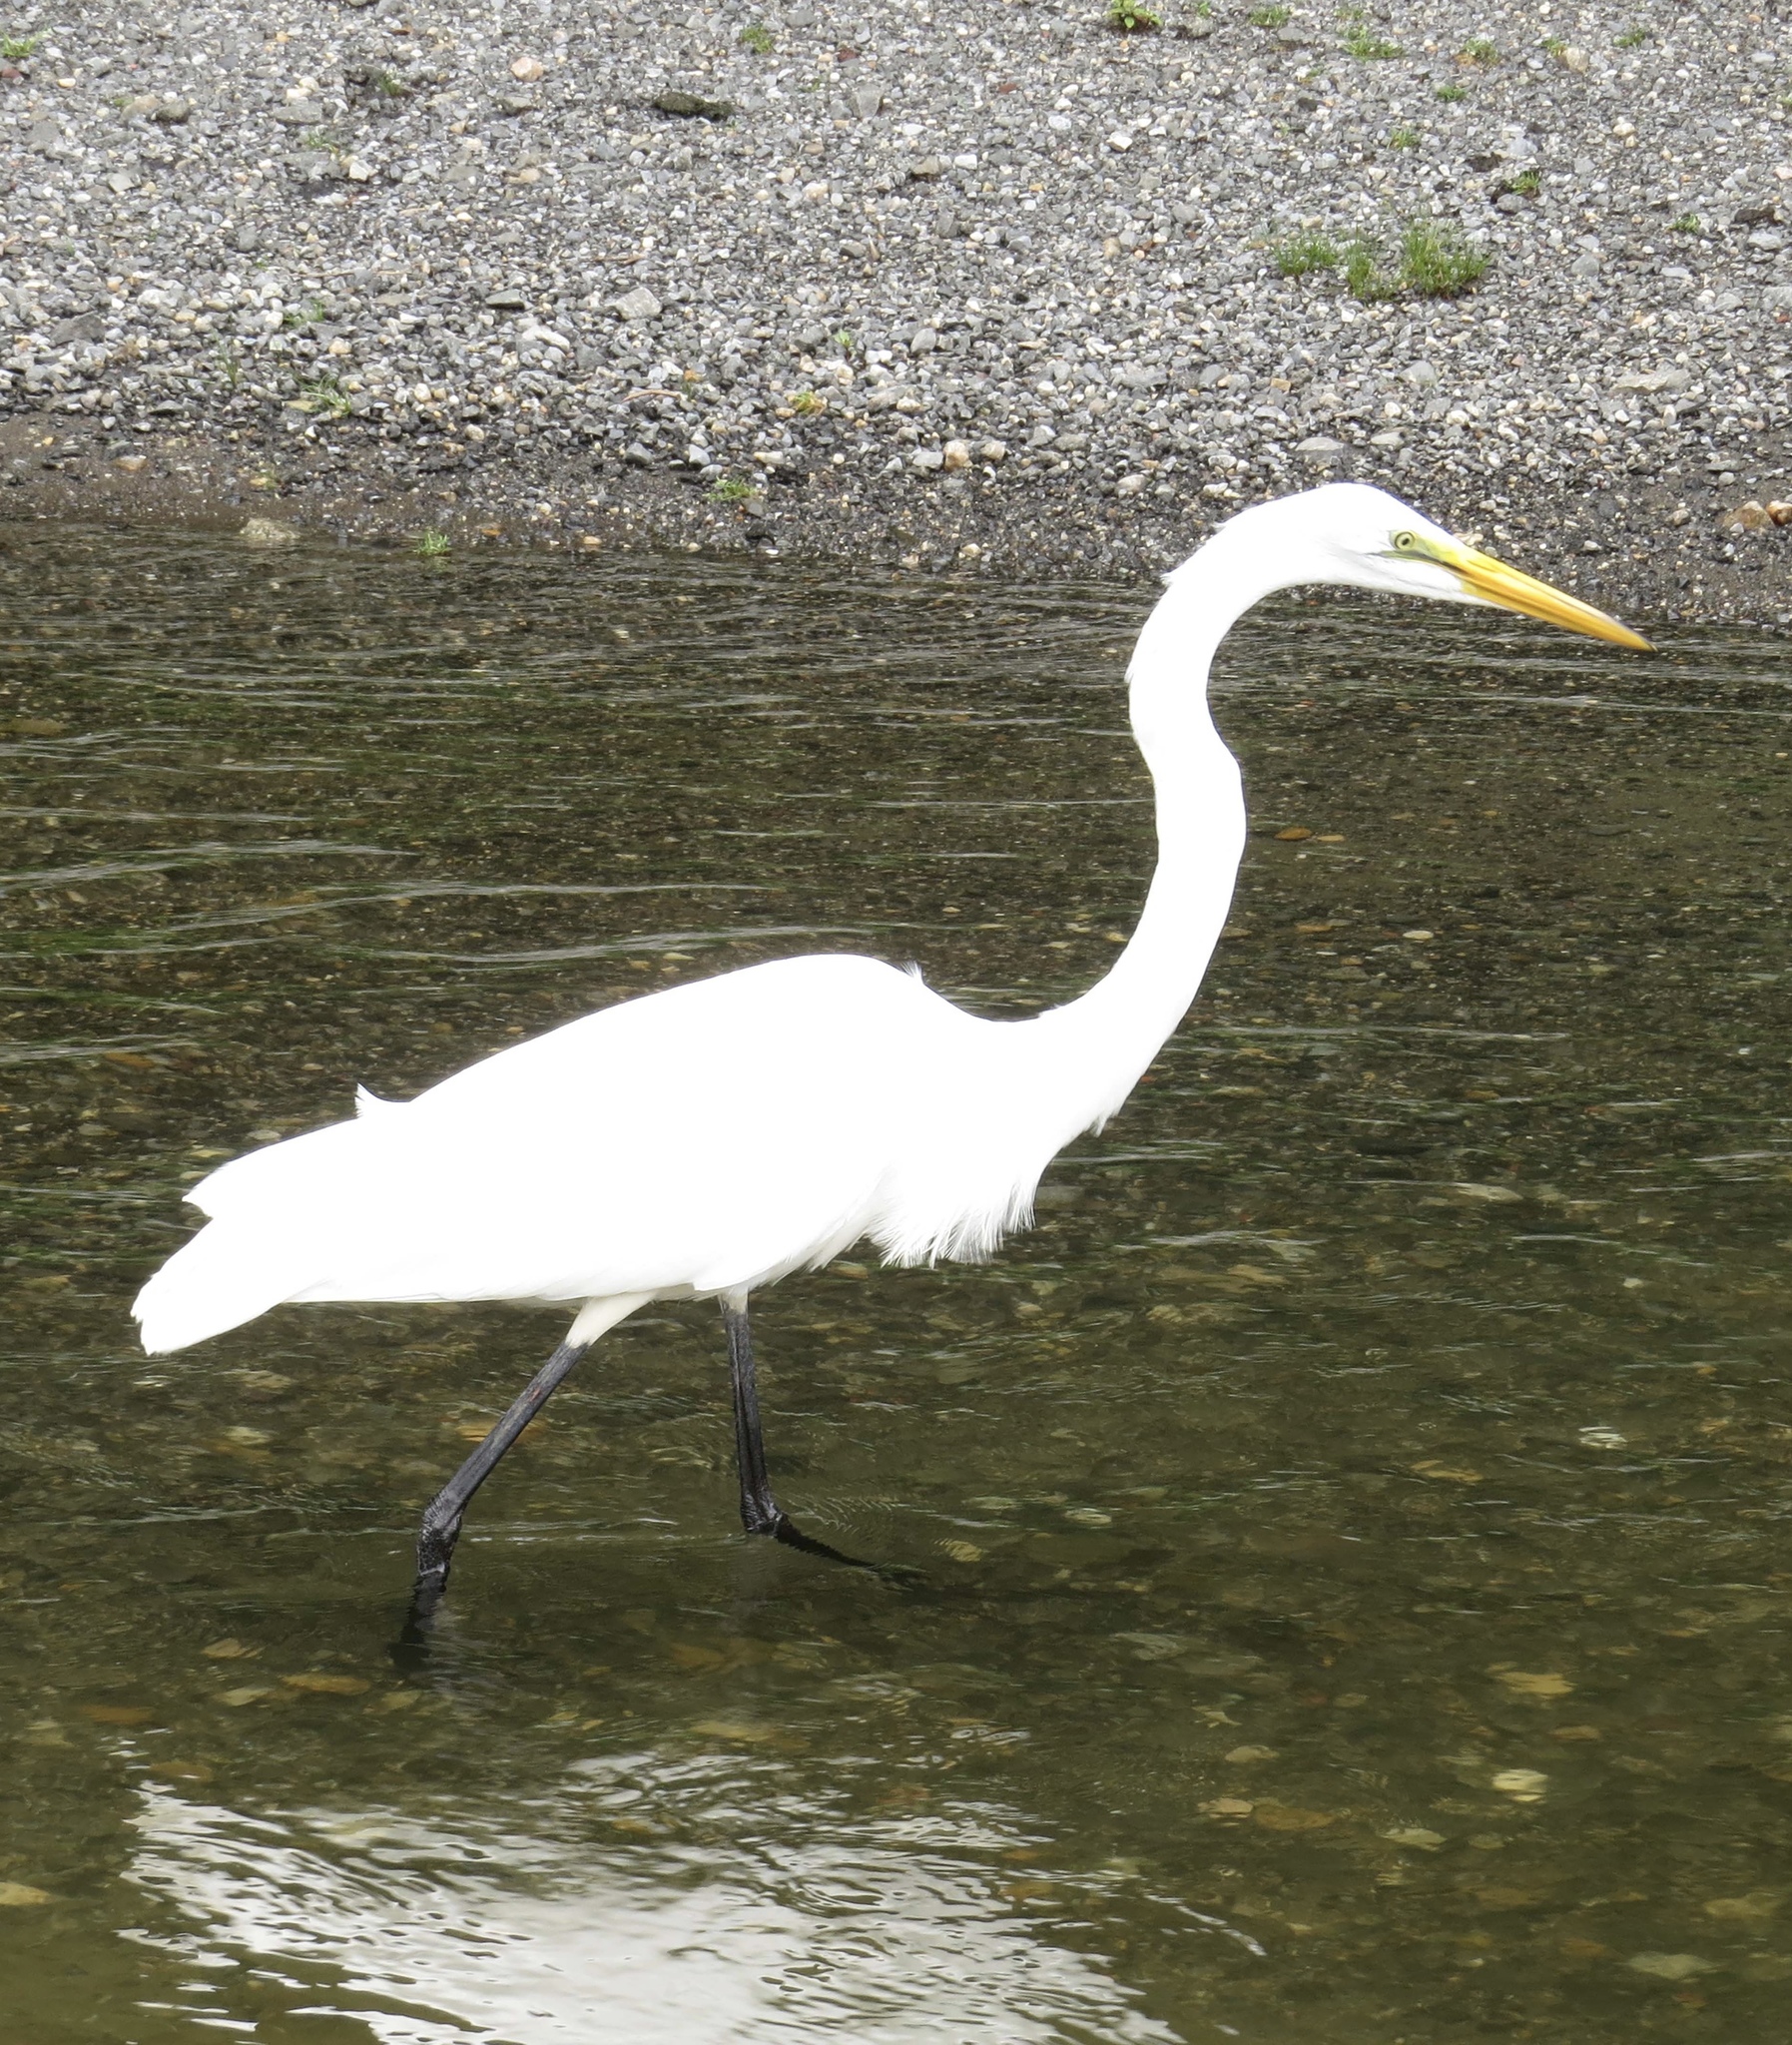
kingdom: Animalia
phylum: Chordata
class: Aves
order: Pelecaniformes
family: Ardeidae
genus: Ardea
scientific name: Ardea alba
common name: Great egret
